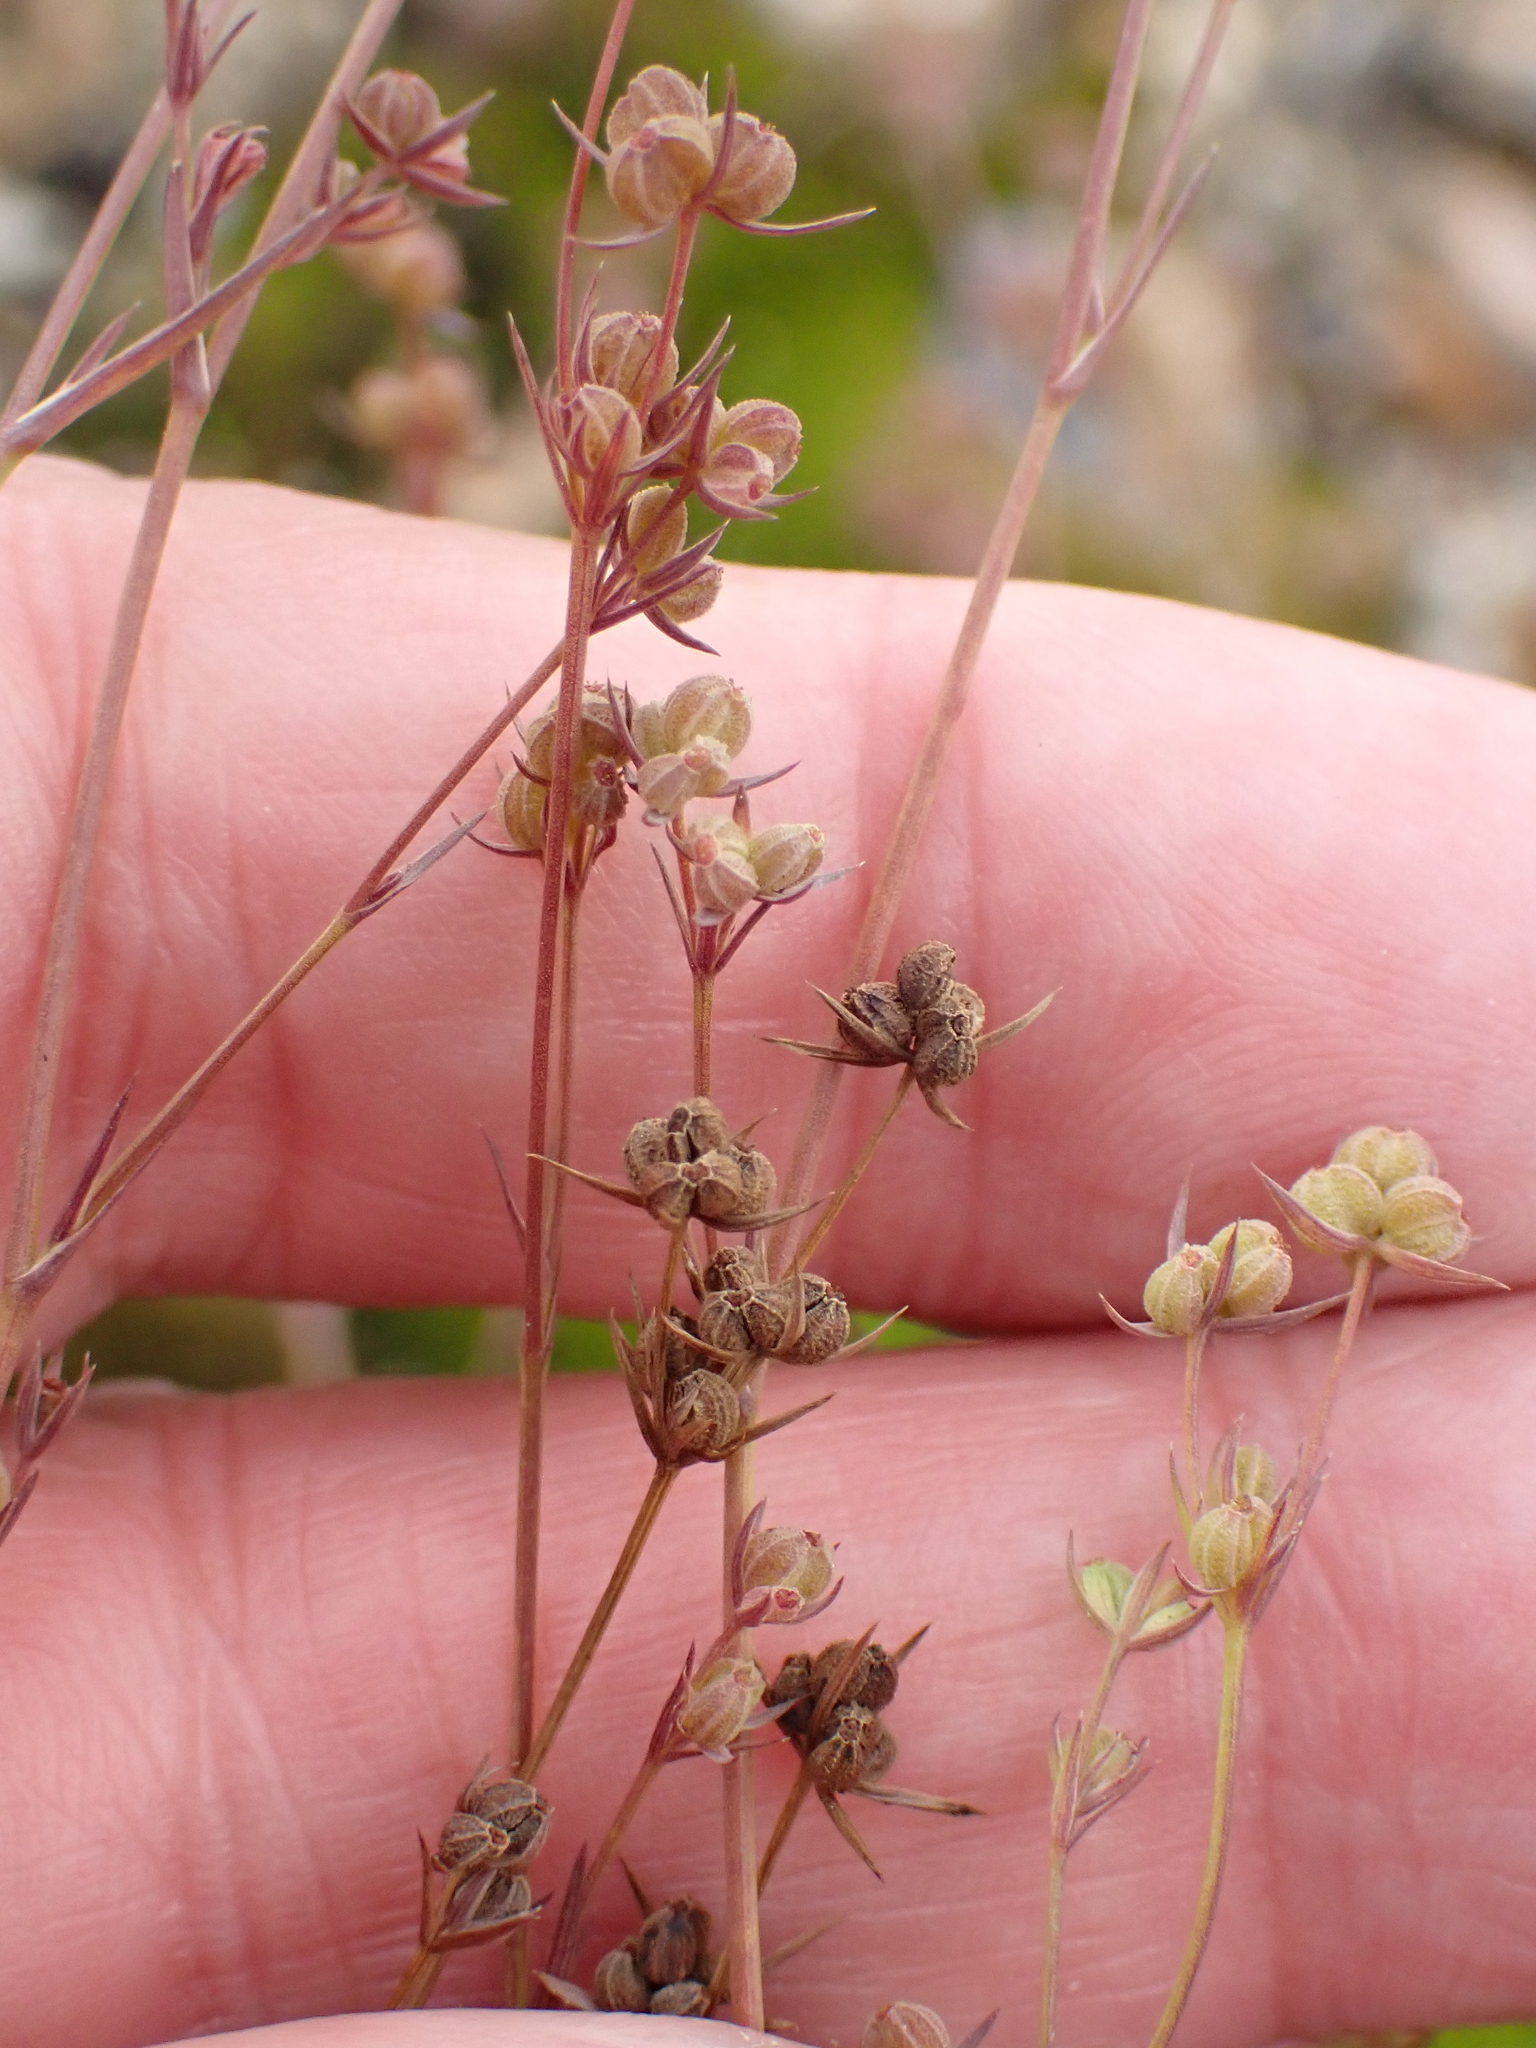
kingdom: Plantae
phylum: Tracheophyta
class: Magnoliopsida
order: Apiales
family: Apiaceae
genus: Bupleurum
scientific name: Bupleurum tenuissimum
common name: Slender hare's-ear
